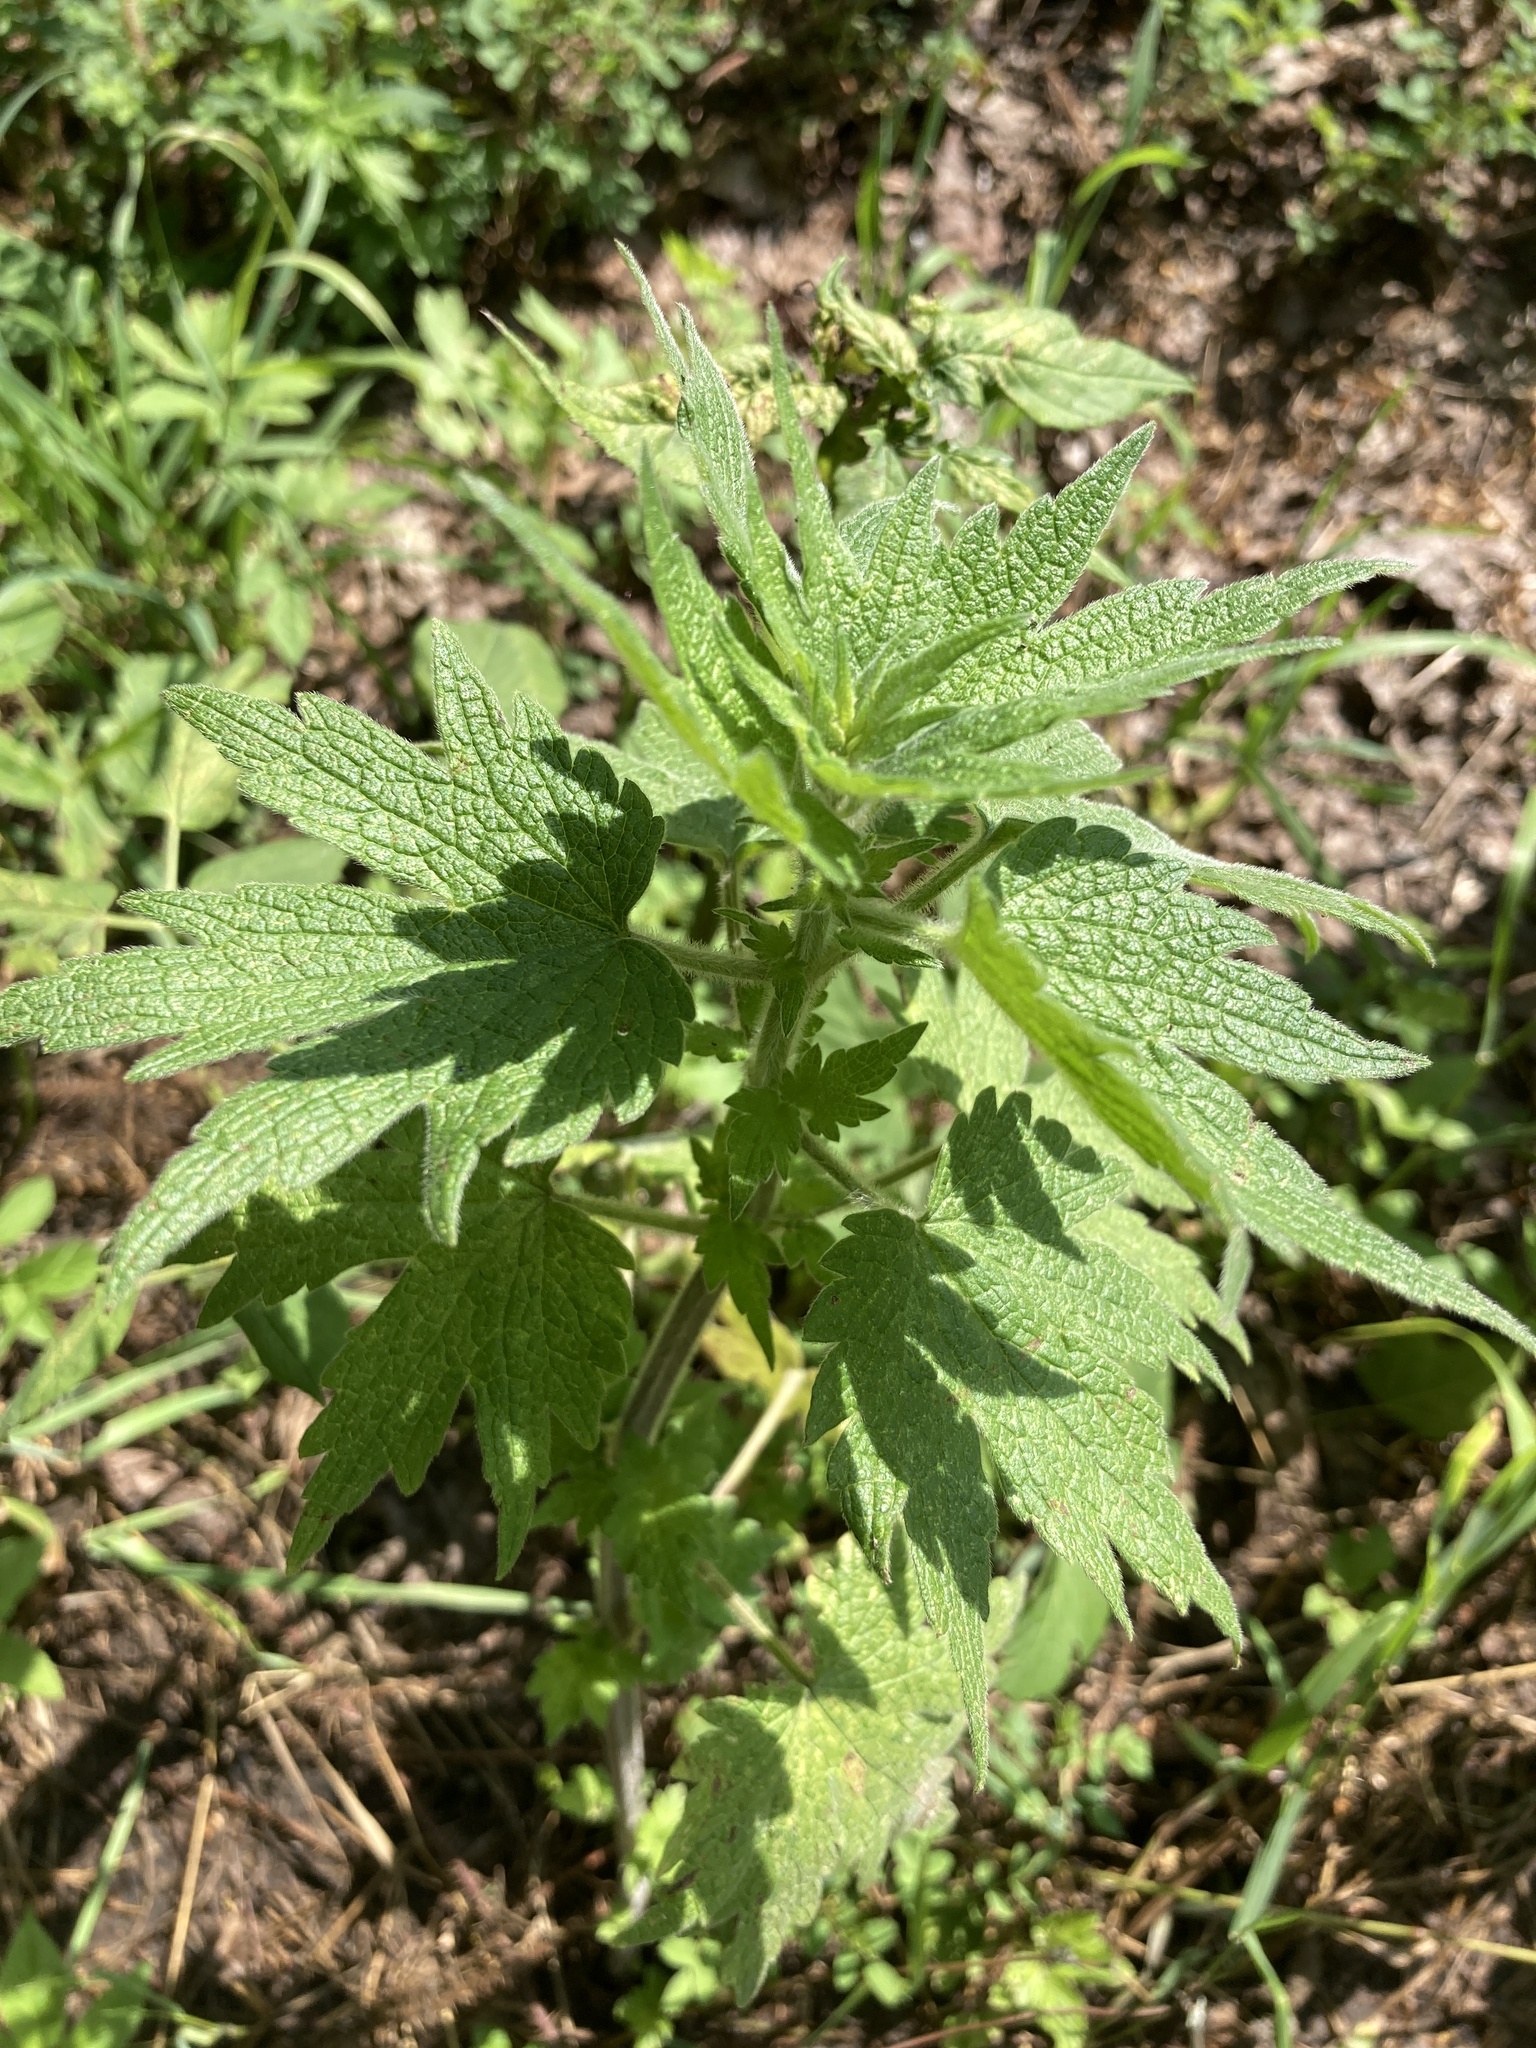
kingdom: Plantae
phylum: Tracheophyta
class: Magnoliopsida
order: Lamiales
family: Lamiaceae
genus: Leonurus
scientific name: Leonurus quinquelobatus
